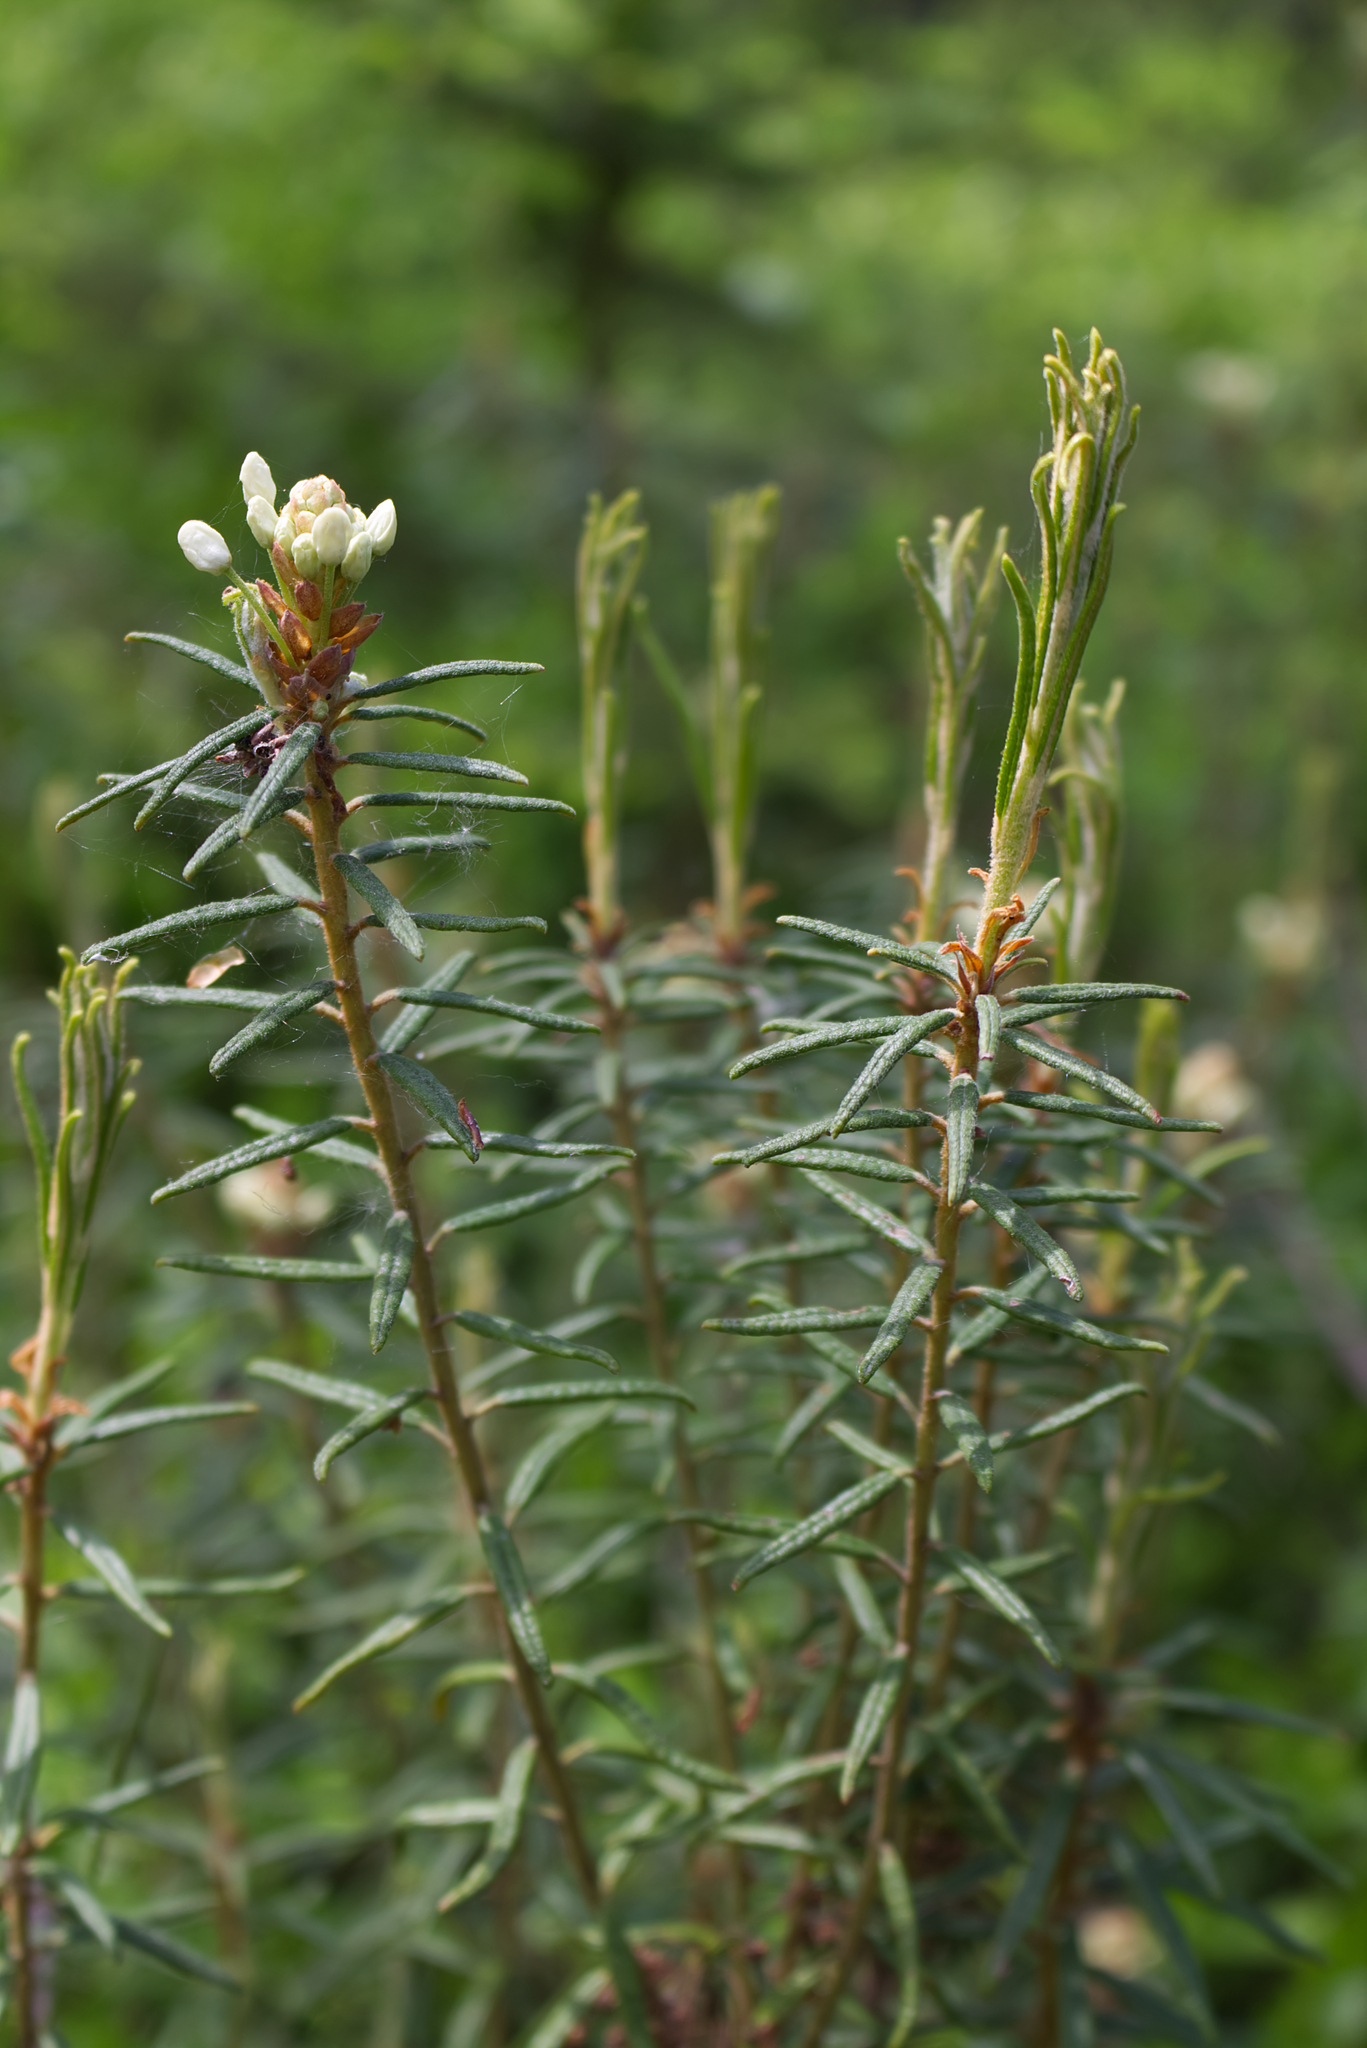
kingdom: Plantae
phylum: Tracheophyta
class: Magnoliopsida
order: Ericales
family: Ericaceae
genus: Rhododendron
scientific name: Rhododendron tomentosum
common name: Marsh labrador tea
